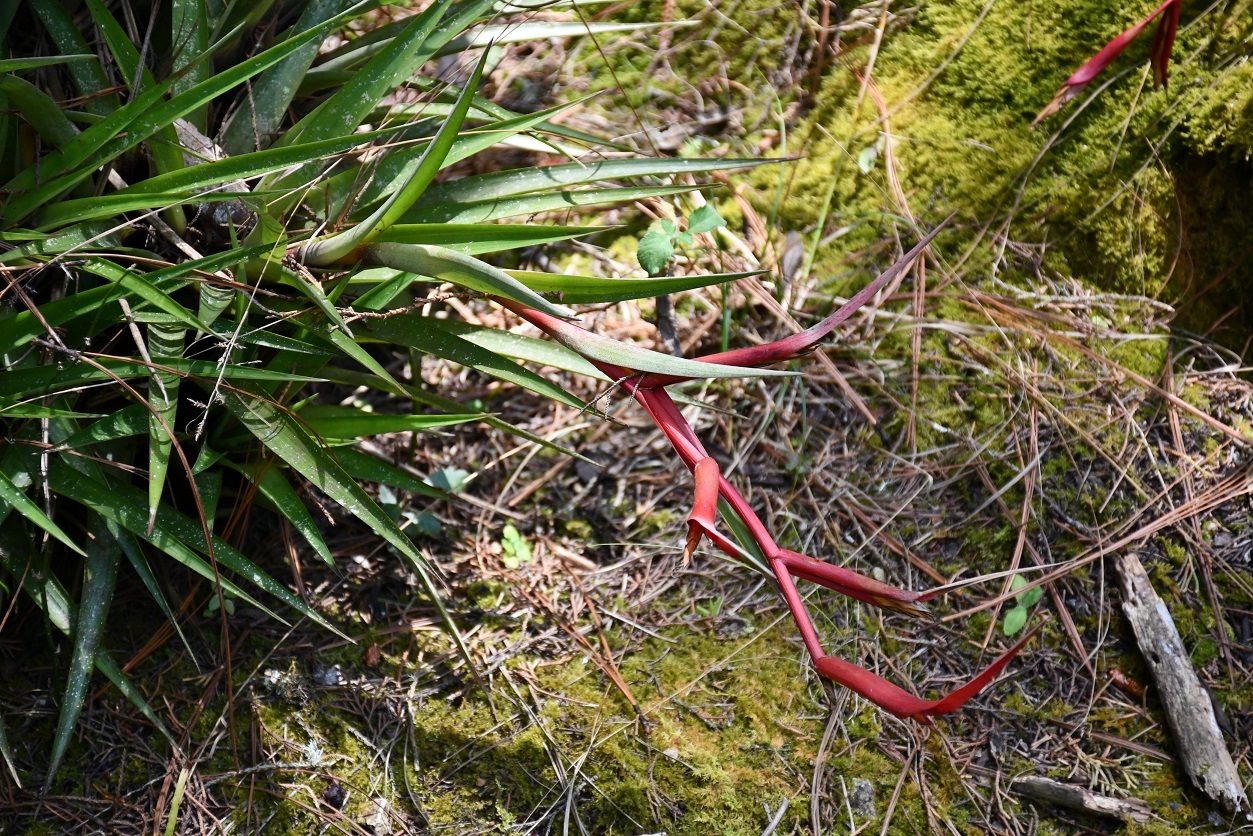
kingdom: Plantae
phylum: Tracheophyta
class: Liliopsida
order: Poales
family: Bromeliaceae
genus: Tillandsia
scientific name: Tillandsia leiboldiana
